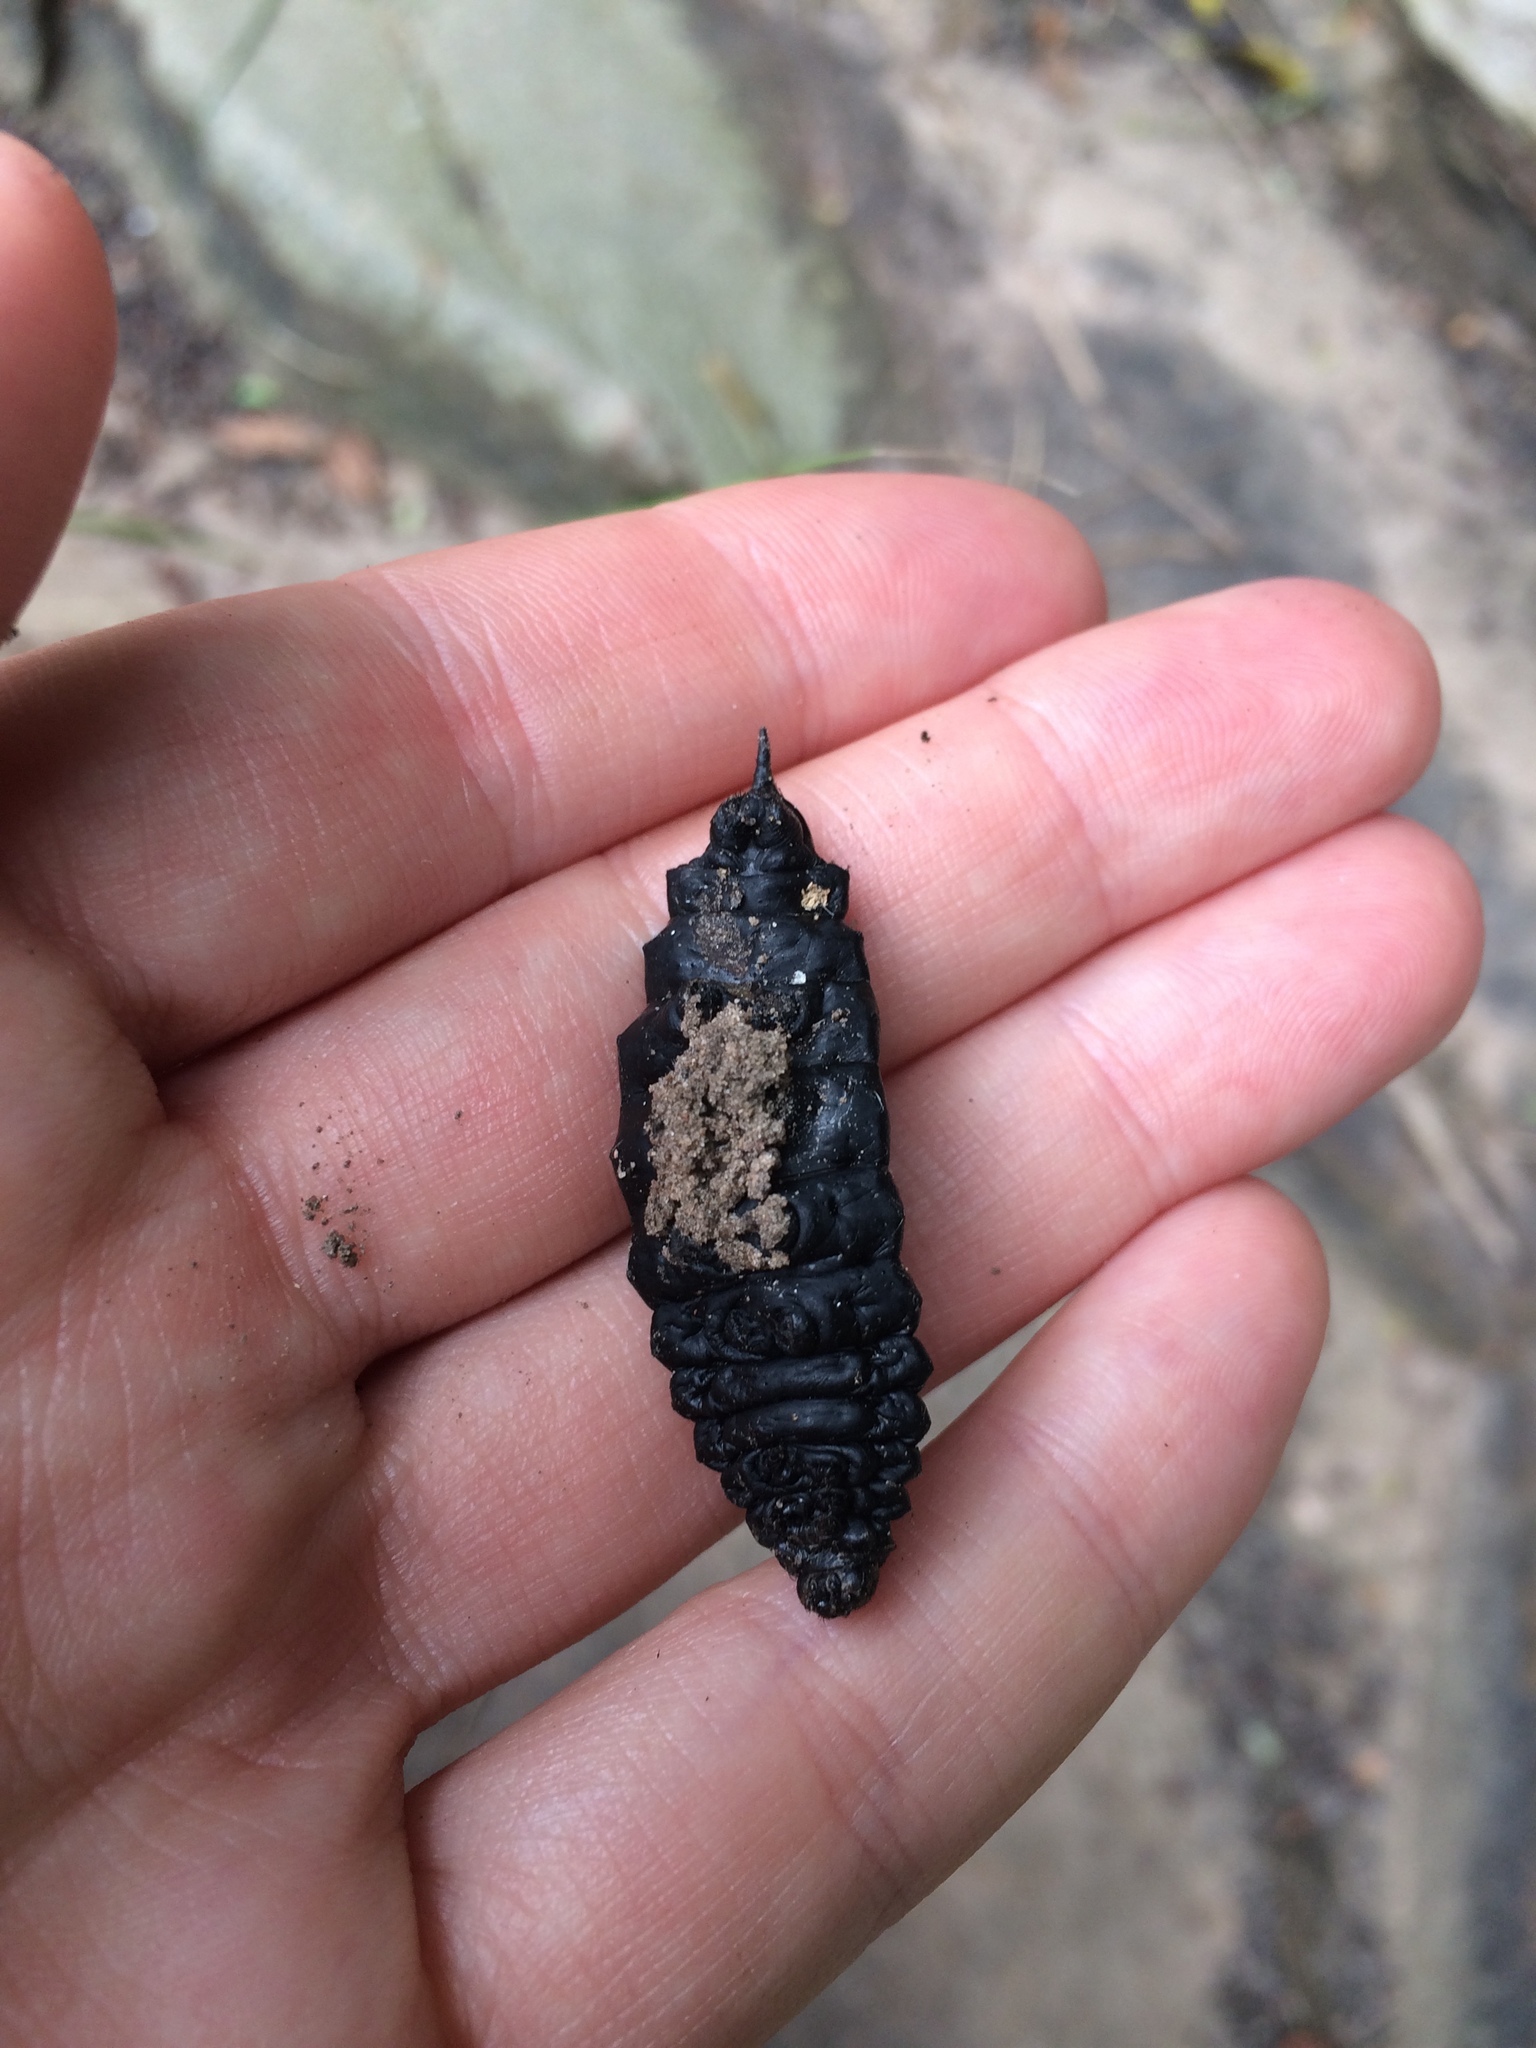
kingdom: Animalia
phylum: Arthropoda
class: Insecta
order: Lepidoptera
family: Saturniidae
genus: Pseudaphelia
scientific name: Pseudaphelia apollinaris
